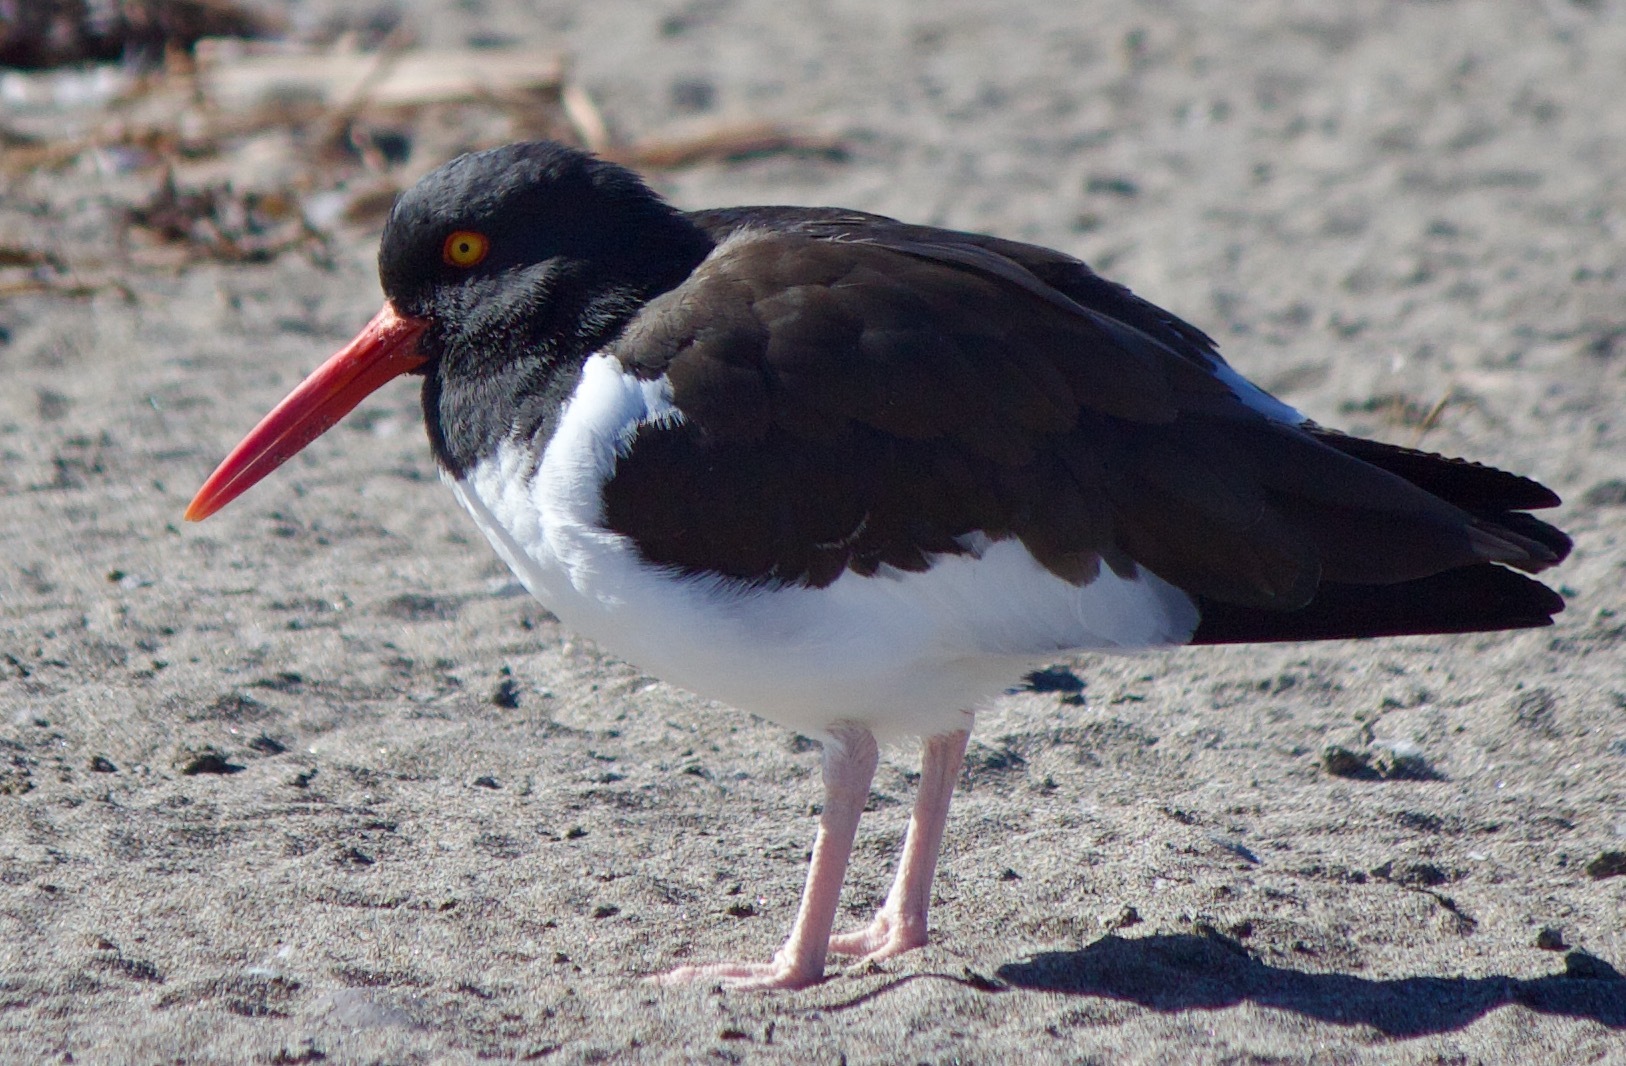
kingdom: Animalia
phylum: Chordata
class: Aves
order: Charadriiformes
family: Haematopodidae
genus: Haematopus
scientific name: Haematopus palliatus
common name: American oystercatcher
